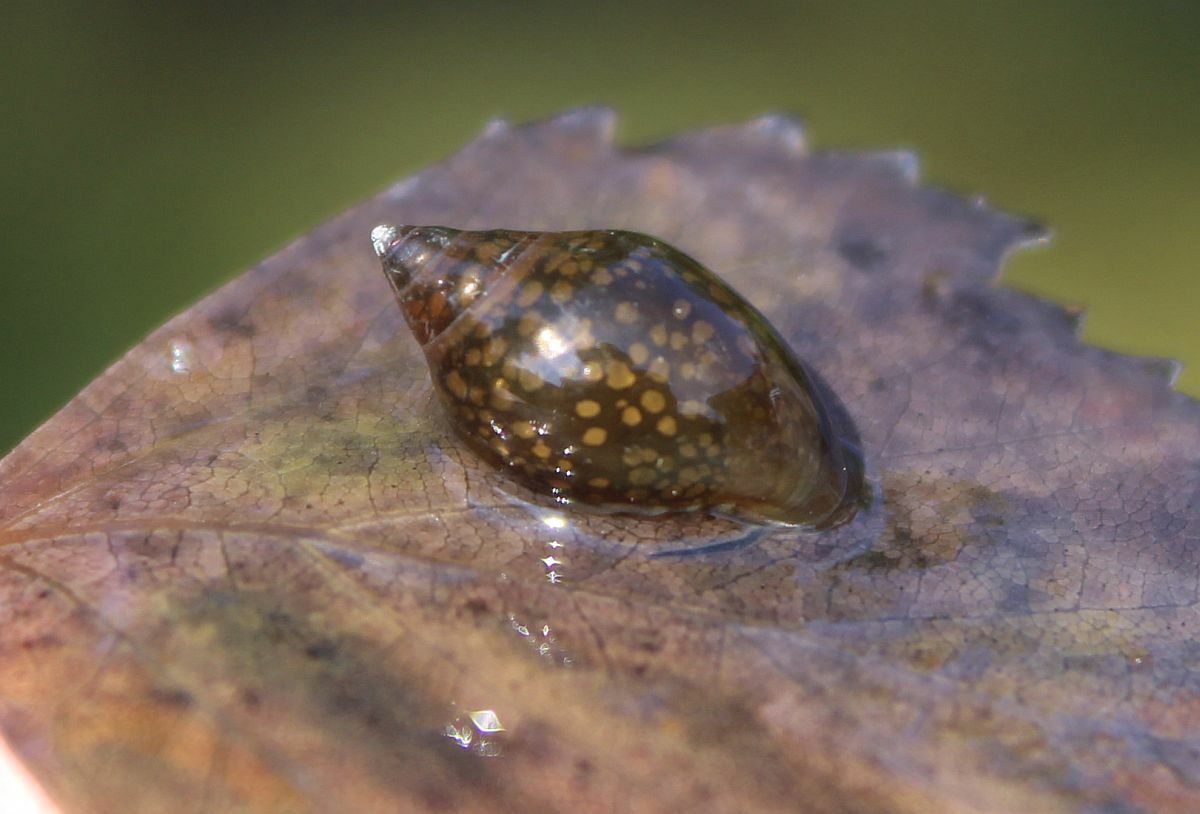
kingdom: Animalia
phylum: Mollusca
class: Gastropoda
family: Physidae
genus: Physella
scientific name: Physella acuta
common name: European physa
